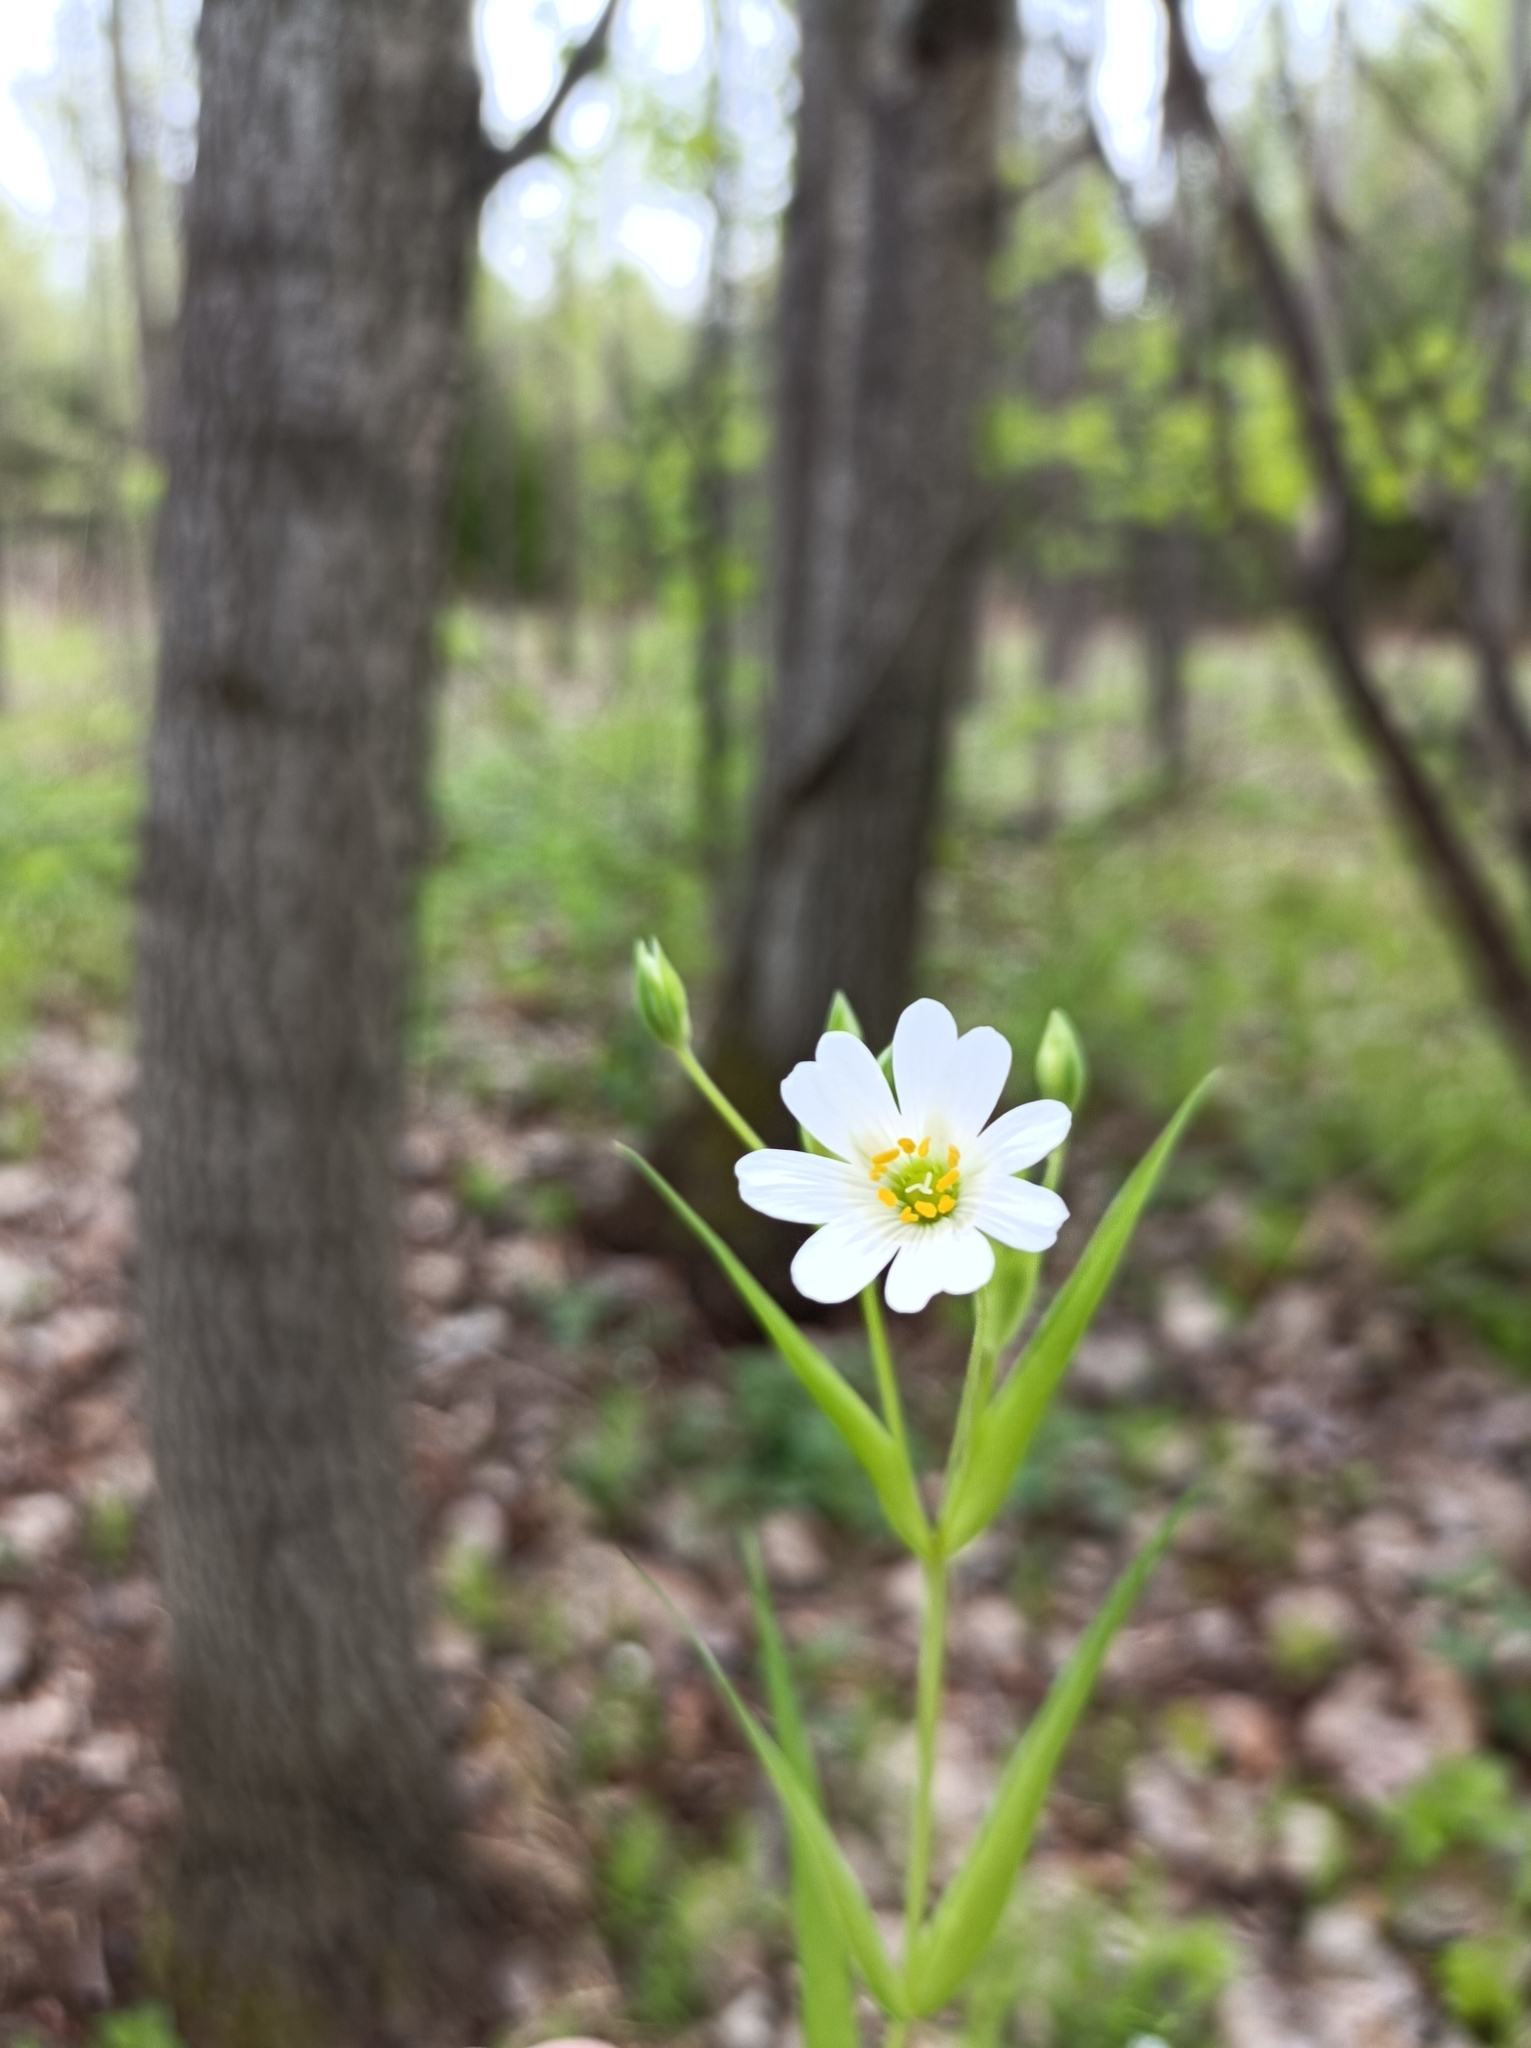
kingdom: Plantae
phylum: Tracheophyta
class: Magnoliopsida
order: Caryophyllales
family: Caryophyllaceae
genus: Rabelera
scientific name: Rabelera holostea
